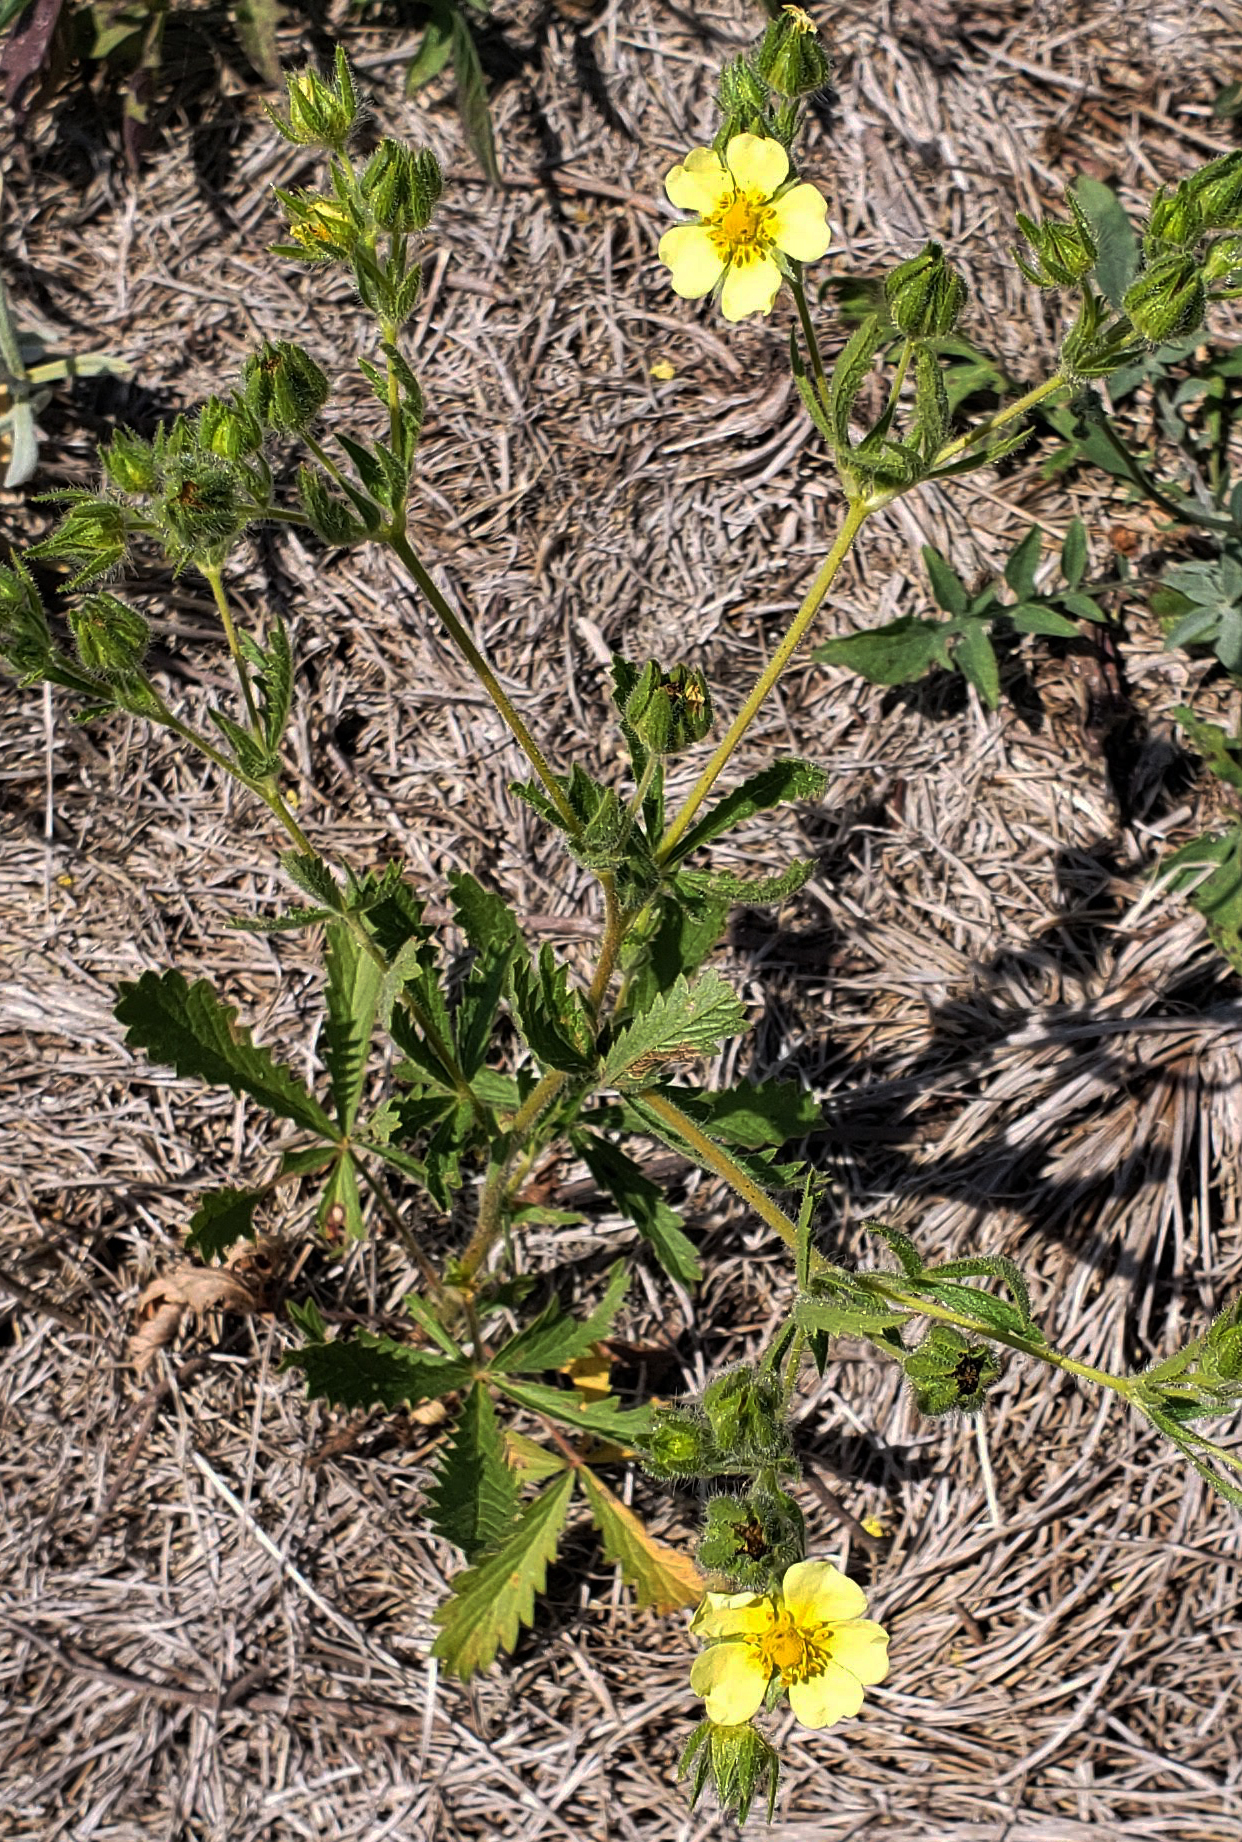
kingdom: Plantae
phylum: Tracheophyta
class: Magnoliopsida
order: Rosales
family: Rosaceae
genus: Potentilla
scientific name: Potentilla recta
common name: Sulphur cinquefoil
